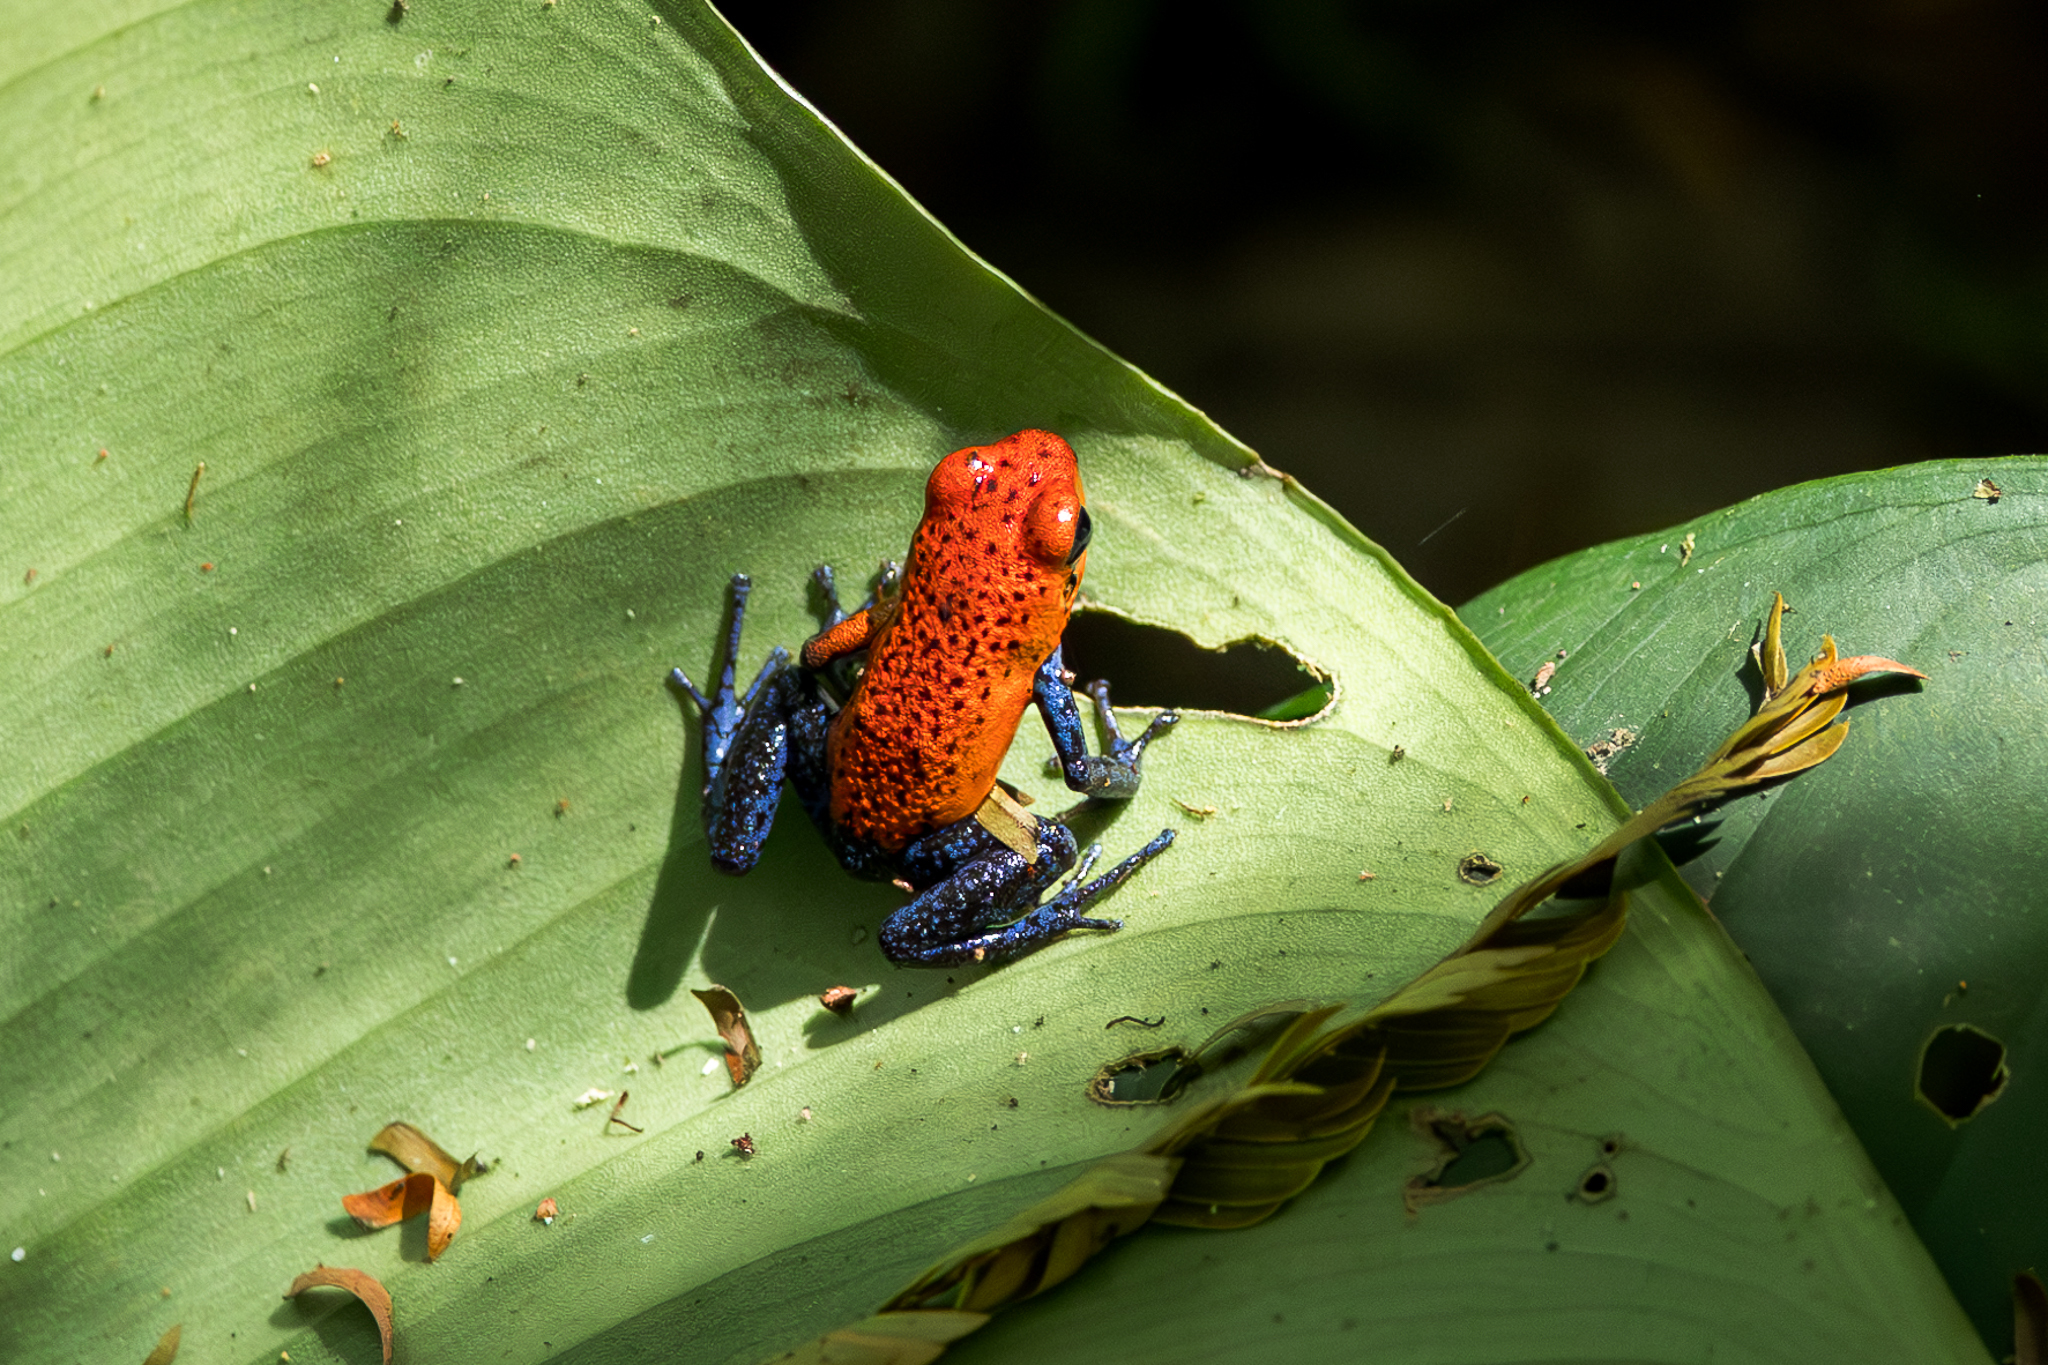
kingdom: Animalia
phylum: Chordata
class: Amphibia
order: Anura
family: Dendrobatidae
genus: Oophaga
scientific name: Oophaga pumilio
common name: Flaming poison frog
